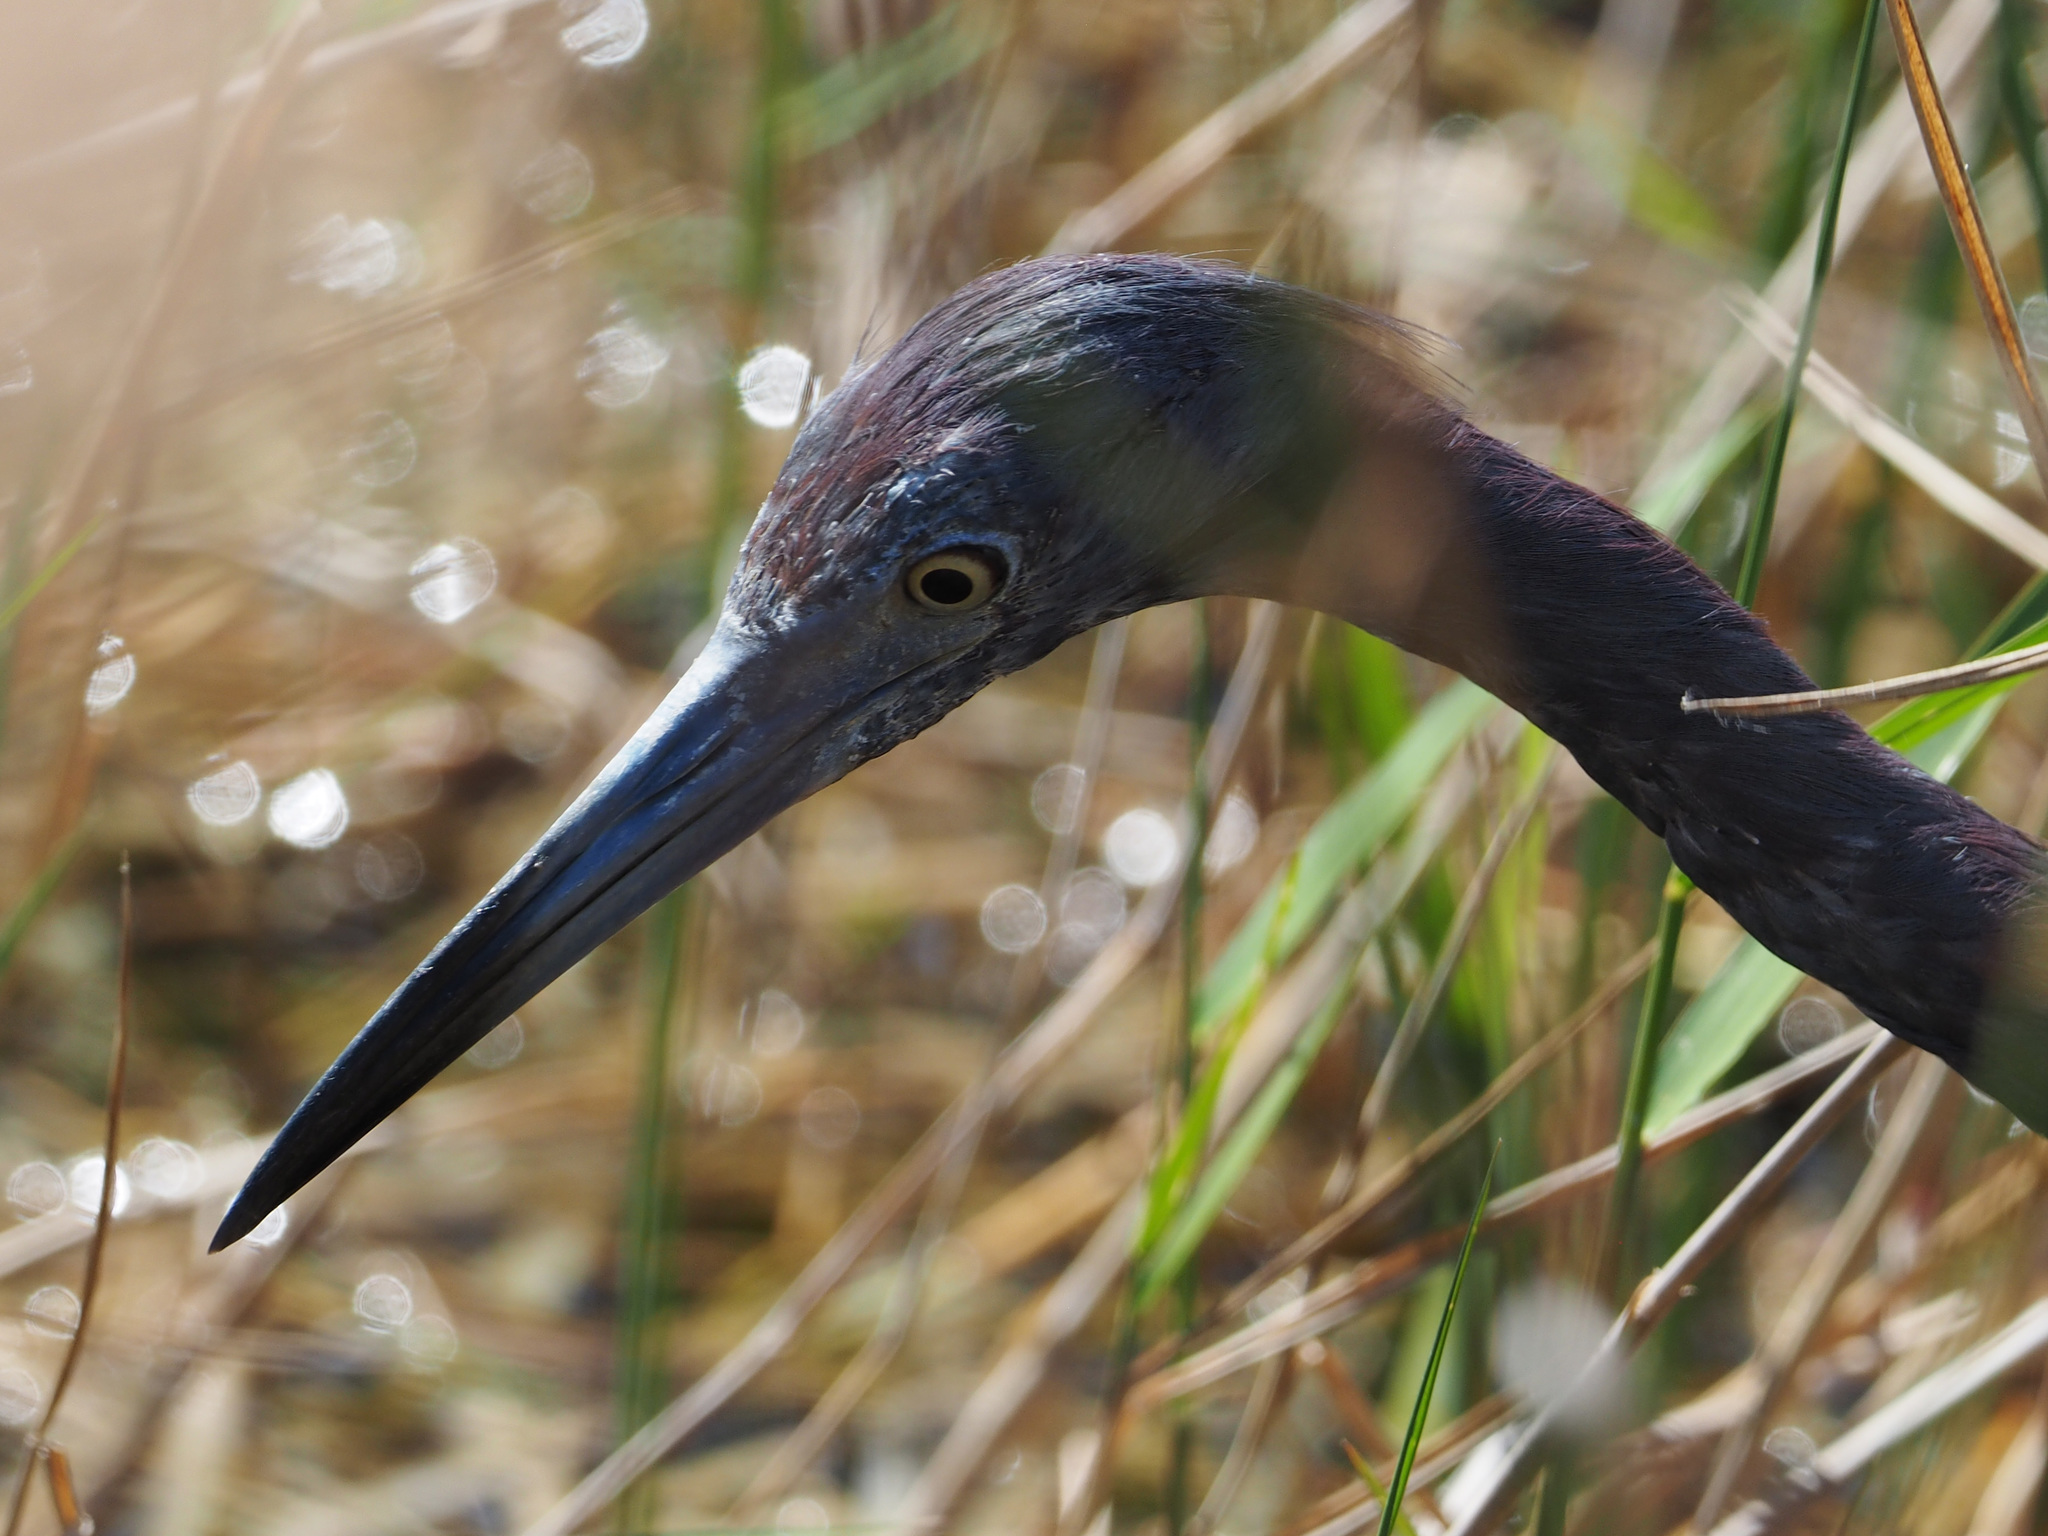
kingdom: Animalia
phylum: Chordata
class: Aves
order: Pelecaniformes
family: Ardeidae
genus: Egretta
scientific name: Egretta caerulea
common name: Little blue heron
